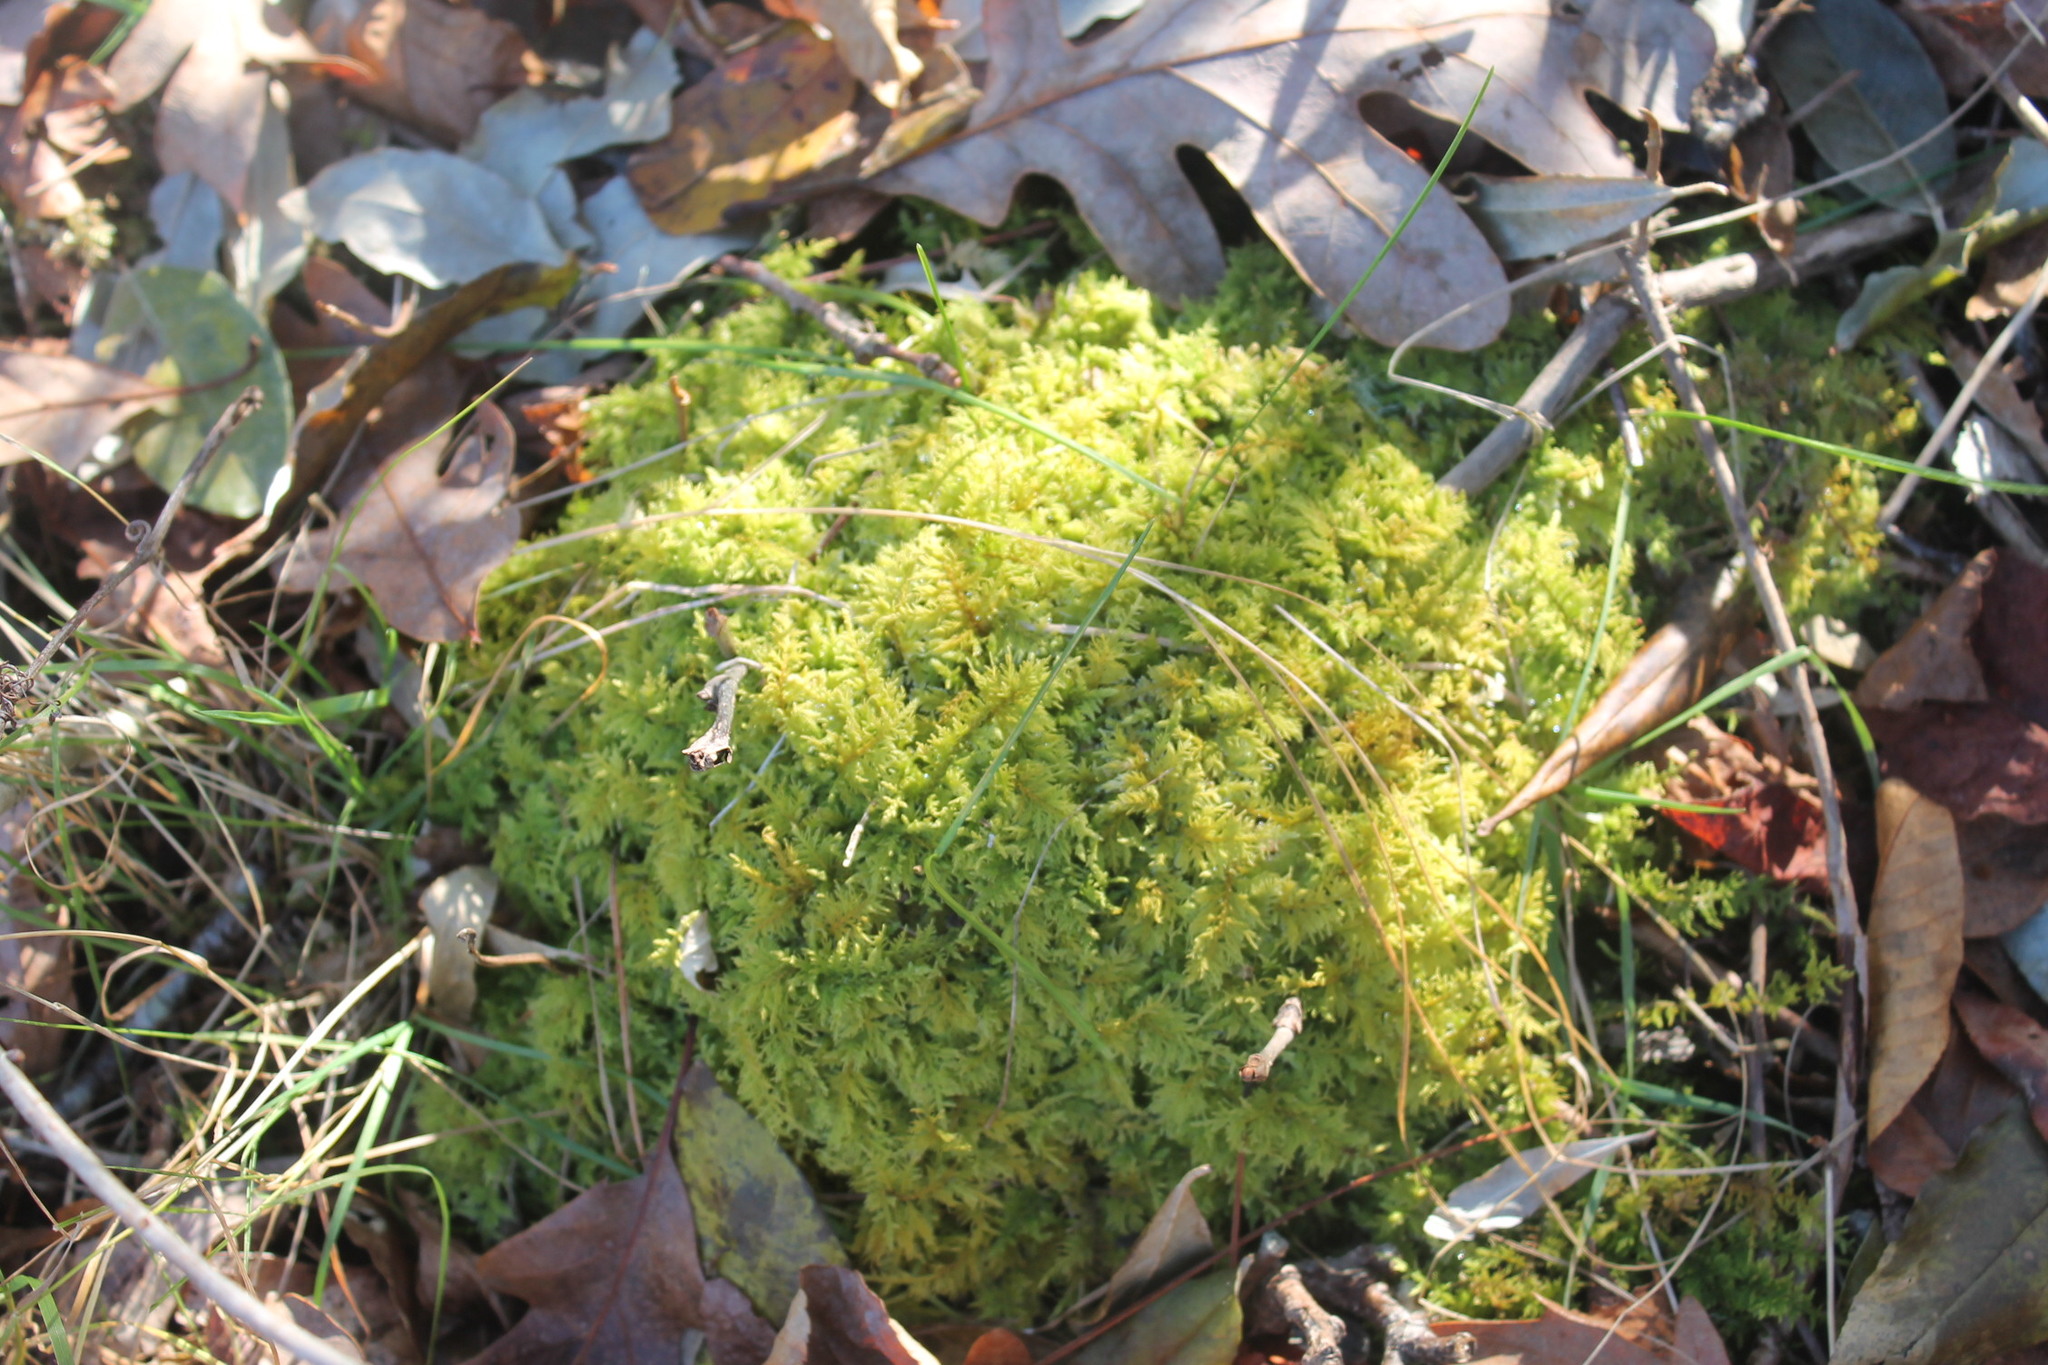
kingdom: Plantae
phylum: Bryophyta
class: Bryopsida
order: Hypnales
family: Thuidiaceae
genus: Thuidium
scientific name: Thuidium delicatulum
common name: Delicate fern moss
